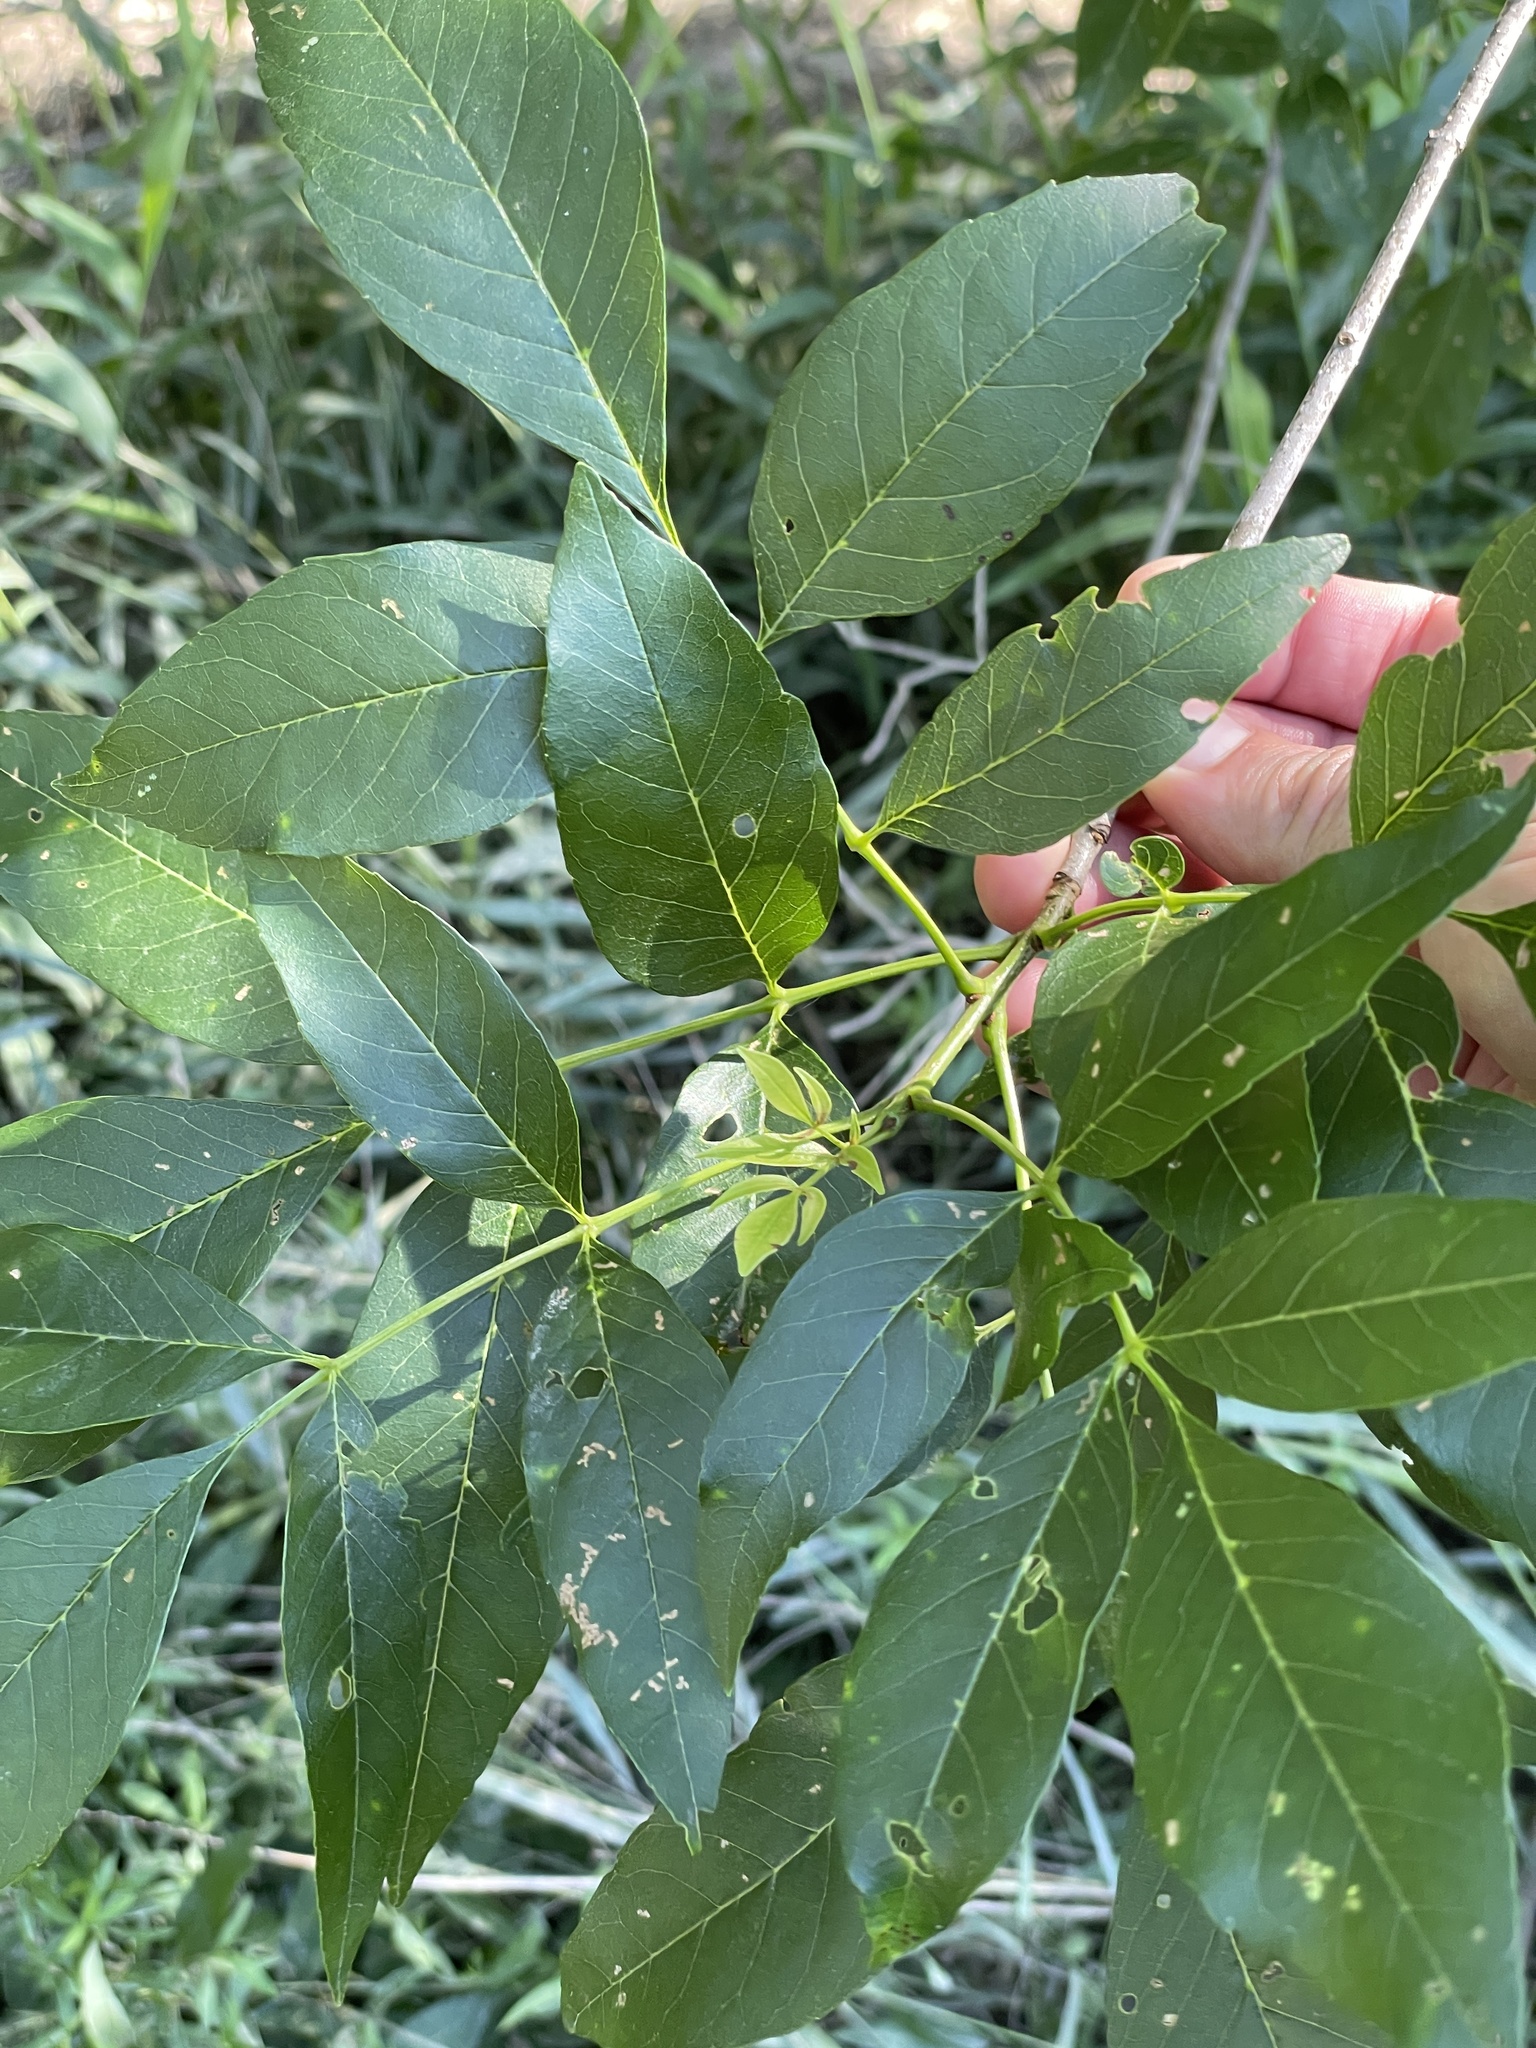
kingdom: Plantae
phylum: Tracheophyta
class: Magnoliopsida
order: Lamiales
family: Oleaceae
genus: Fraxinus
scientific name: Fraxinus berlandieriana
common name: Berlandier ash
